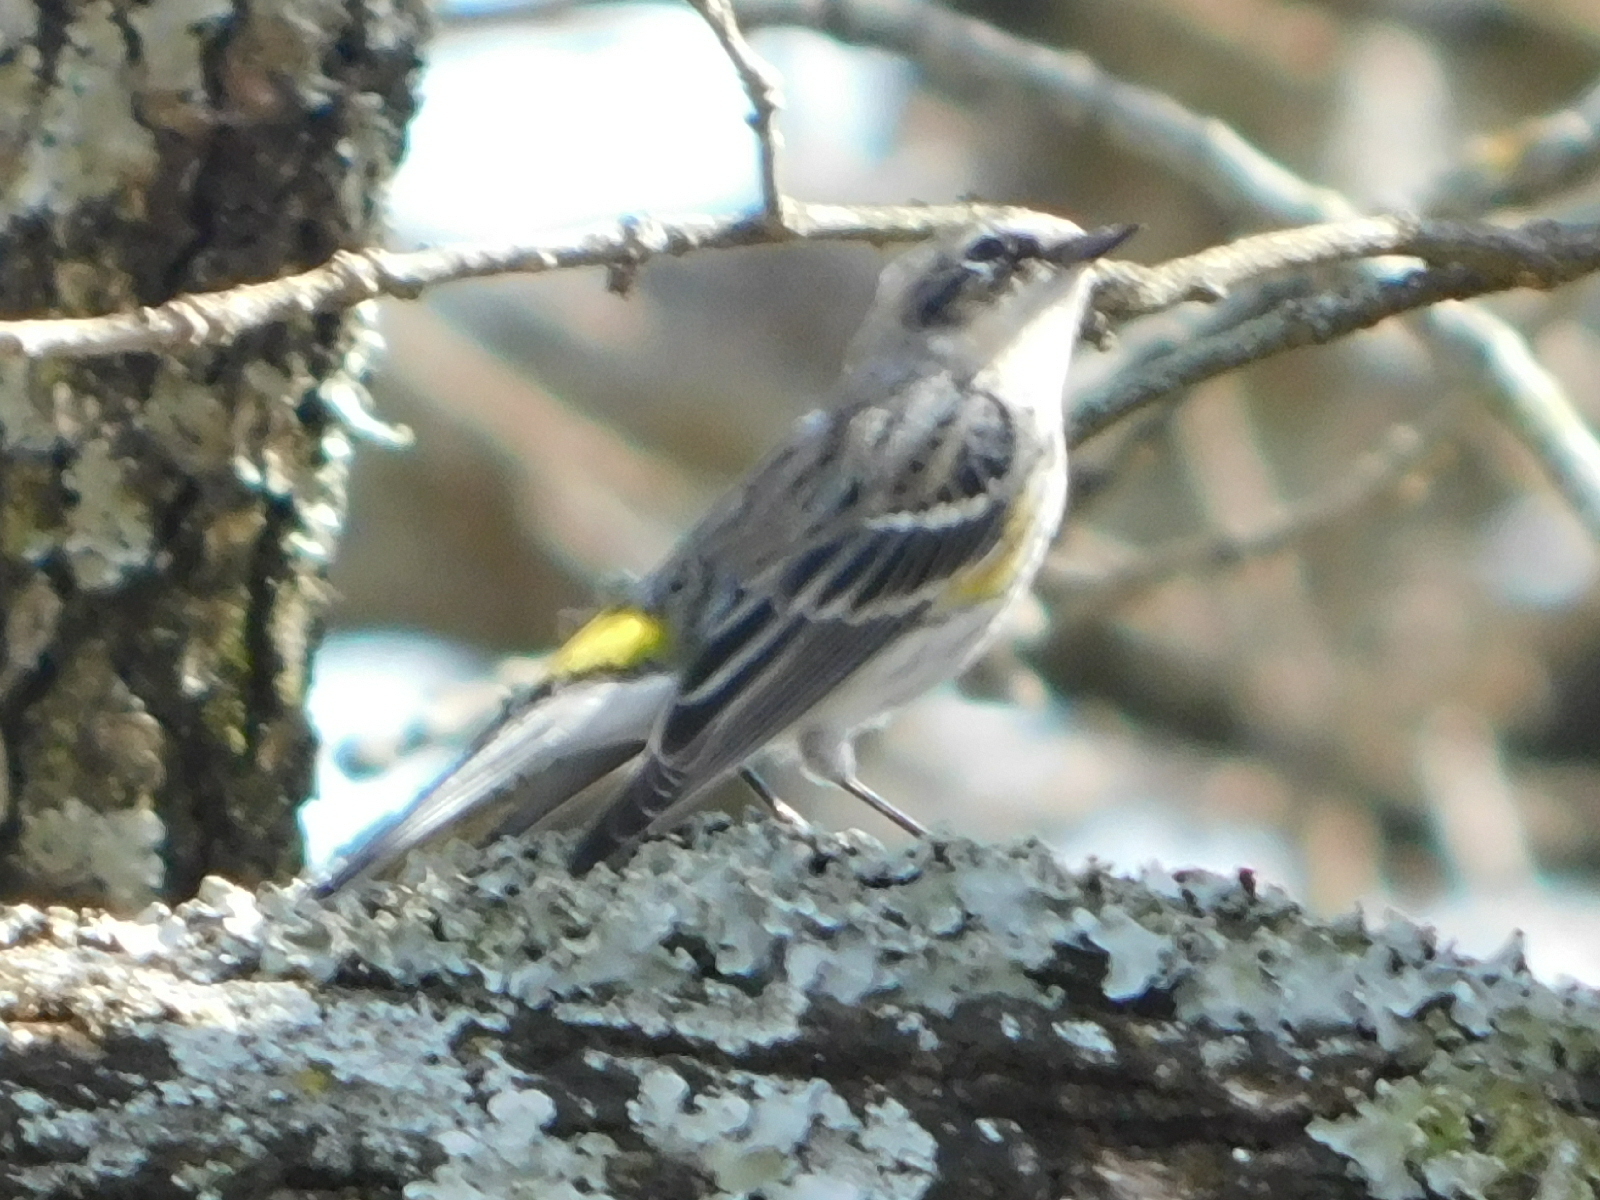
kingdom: Animalia
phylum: Chordata
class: Aves
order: Passeriformes
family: Parulidae
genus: Setophaga
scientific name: Setophaga coronata
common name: Myrtle warbler
